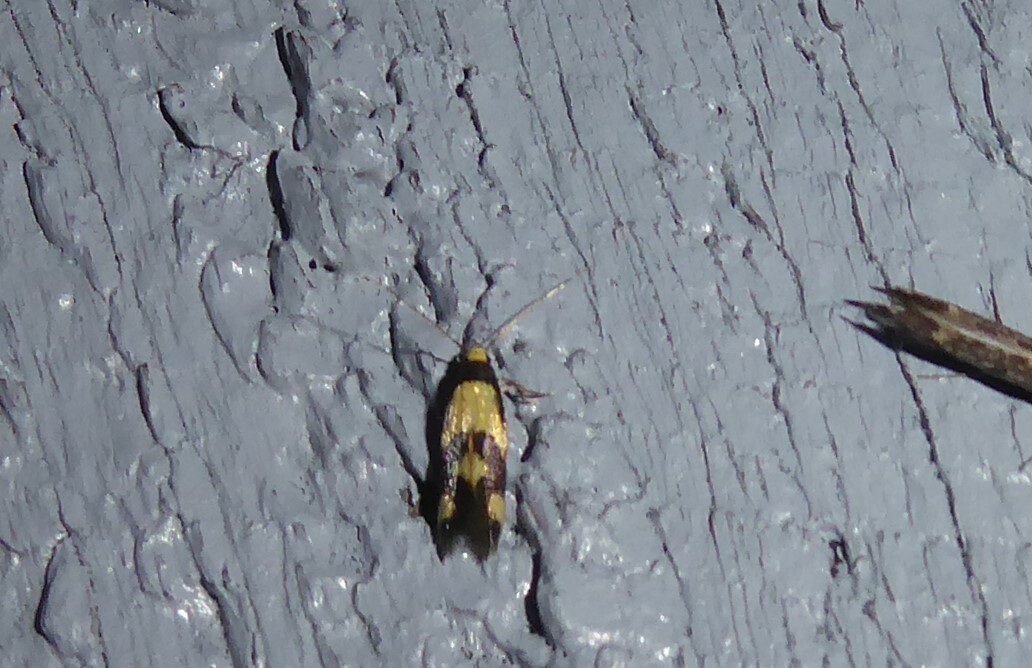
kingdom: Animalia
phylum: Arthropoda
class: Insecta
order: Lepidoptera
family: Tineidae
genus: Opogona
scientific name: Opogona comptella
